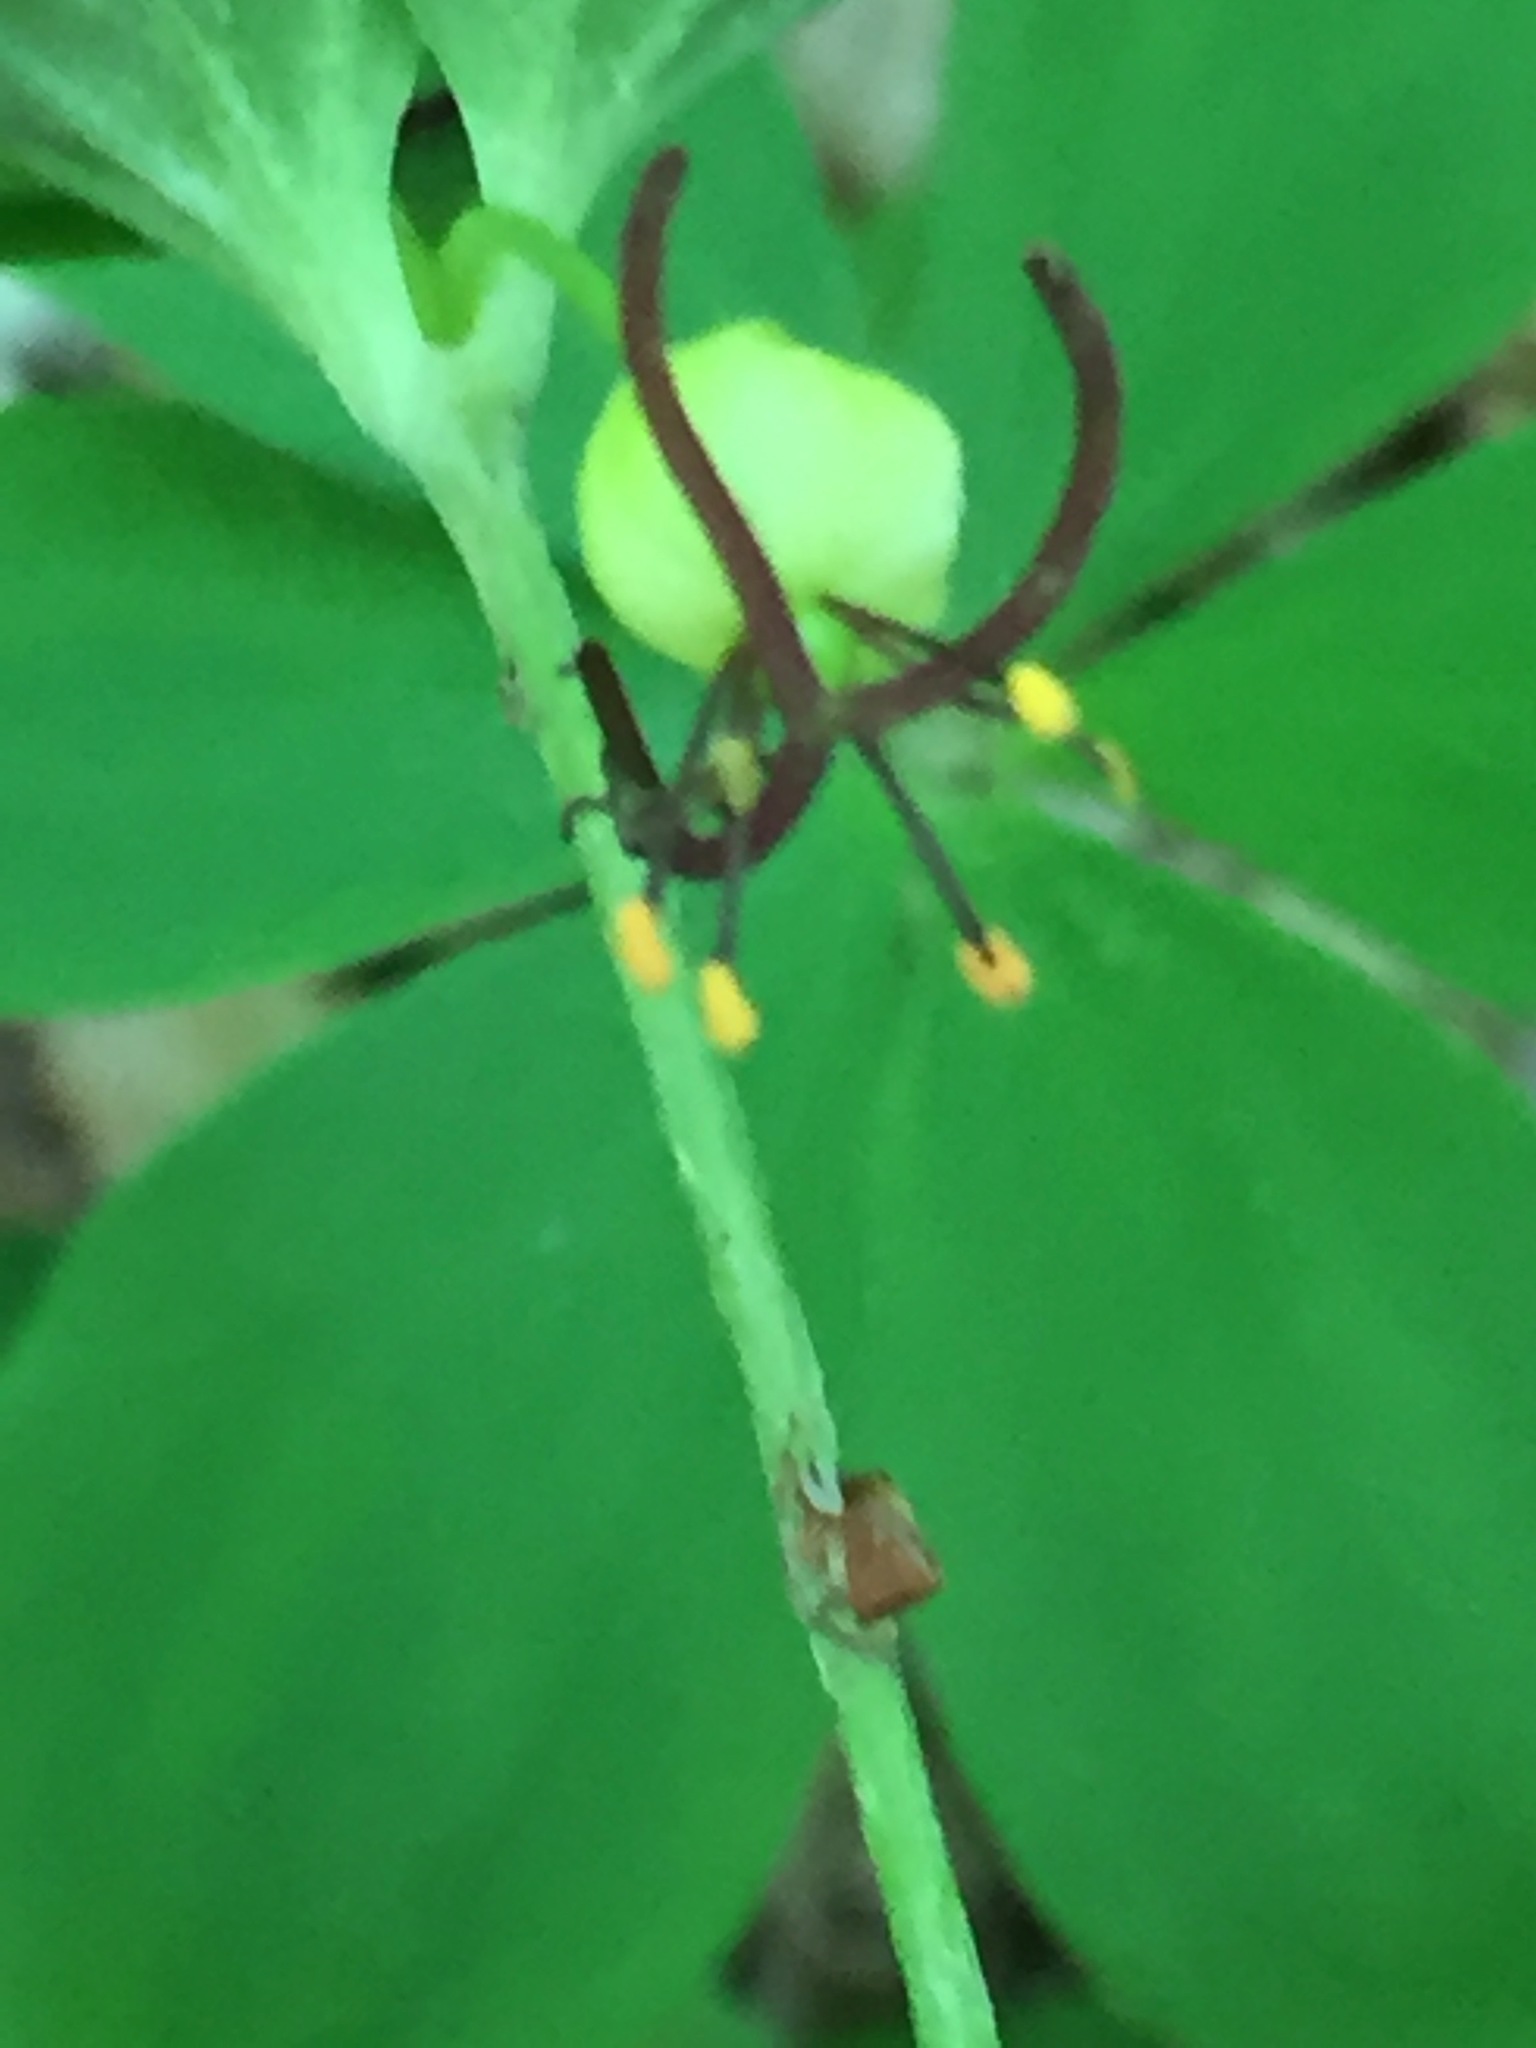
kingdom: Plantae
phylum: Tracheophyta
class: Liliopsida
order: Liliales
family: Liliaceae
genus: Medeola
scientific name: Medeola virginiana
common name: Indian cucumber-root
